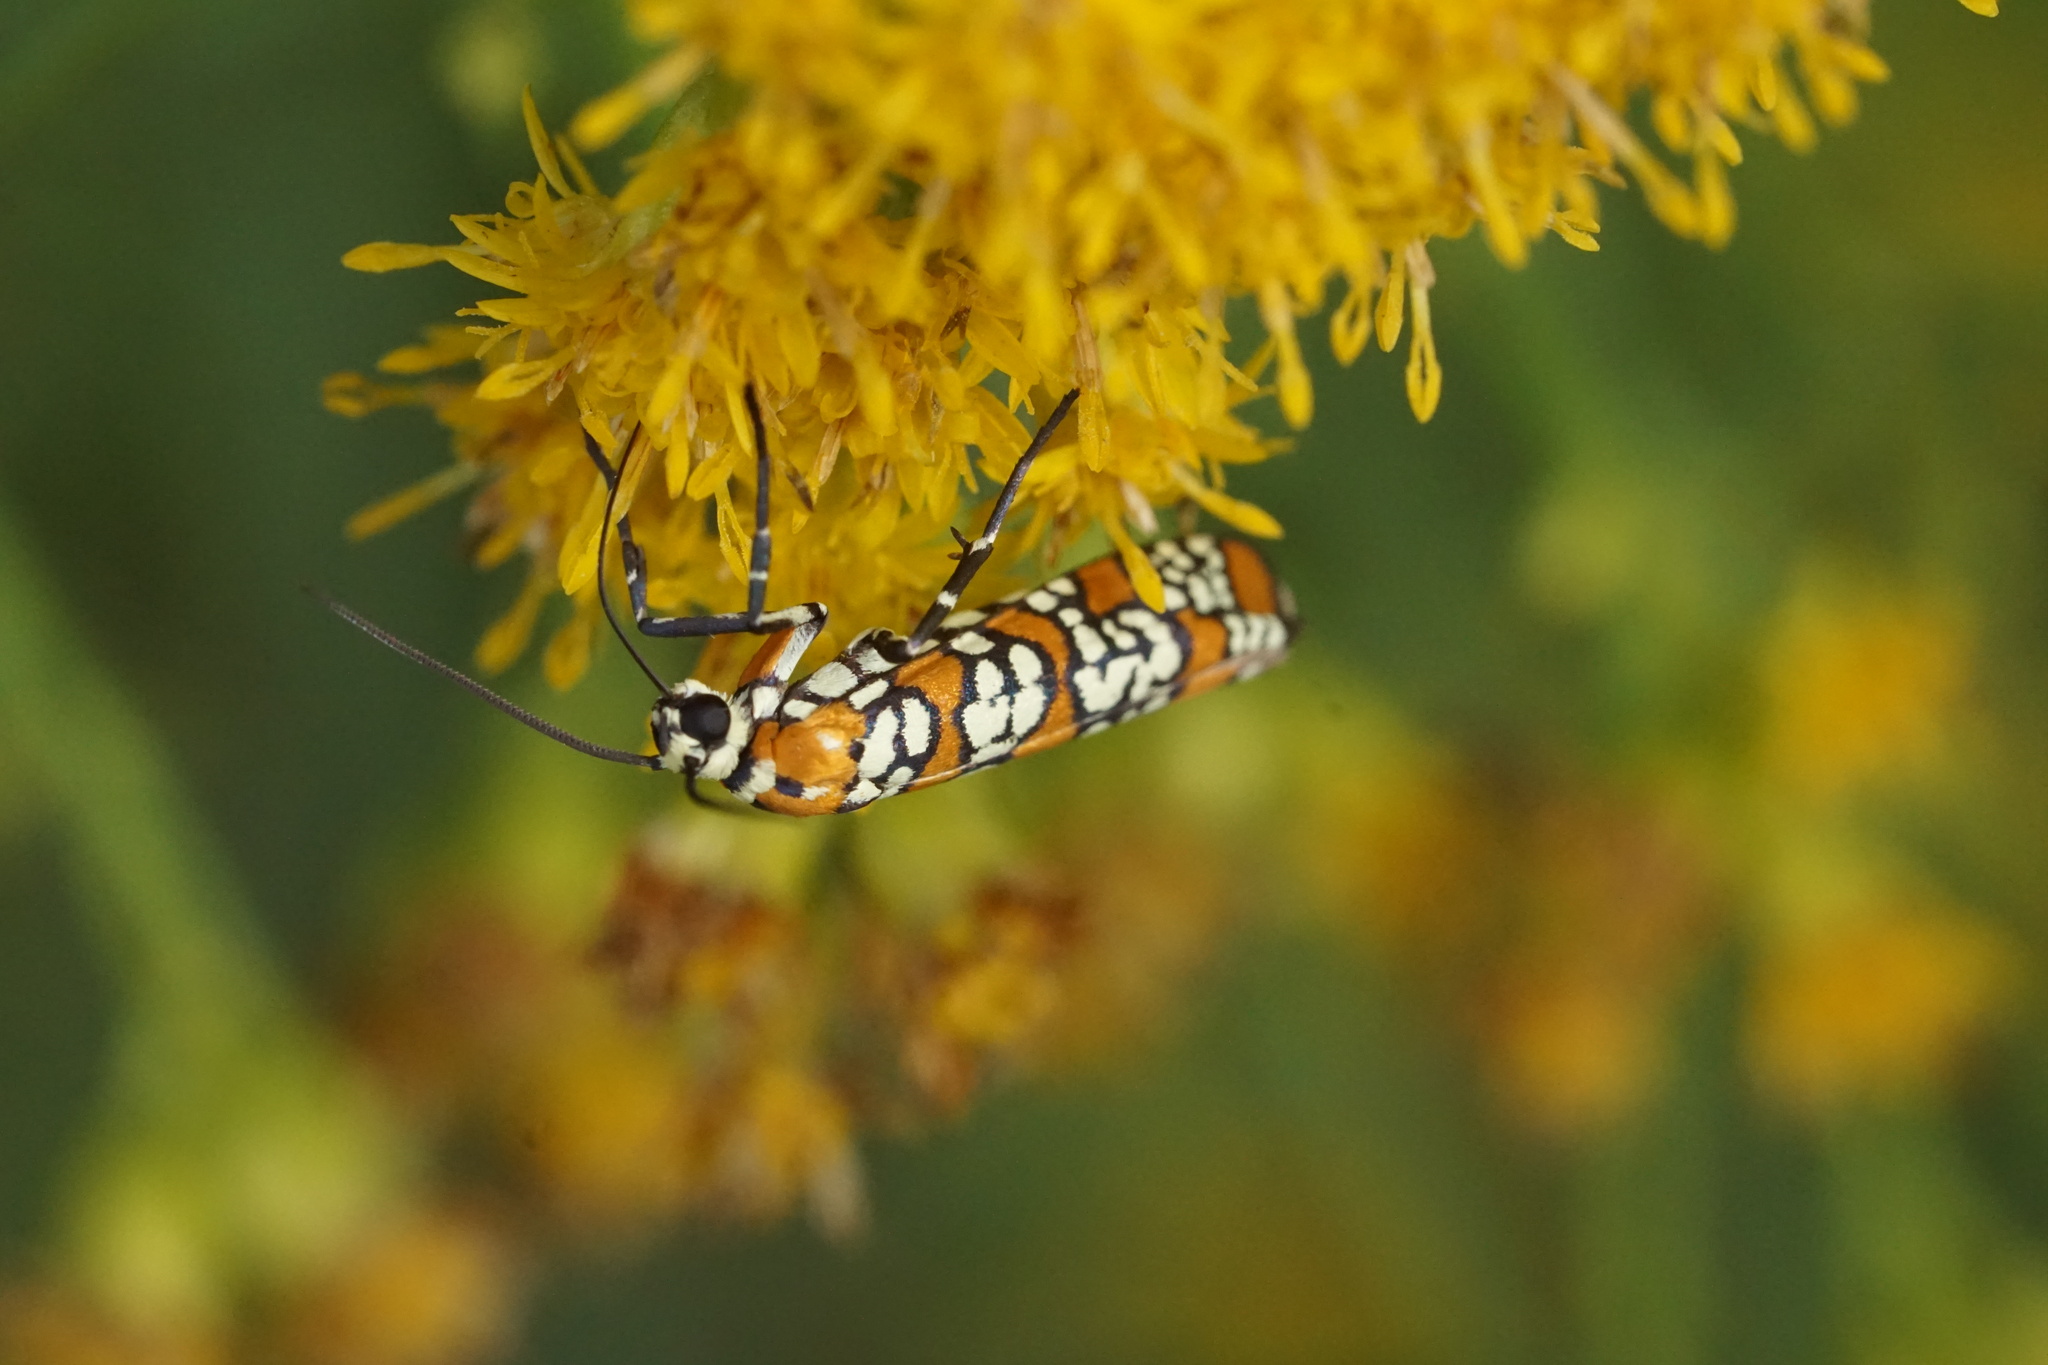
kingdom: Animalia
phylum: Arthropoda
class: Insecta
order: Lepidoptera
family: Attevidae
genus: Atteva
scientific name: Atteva punctella
